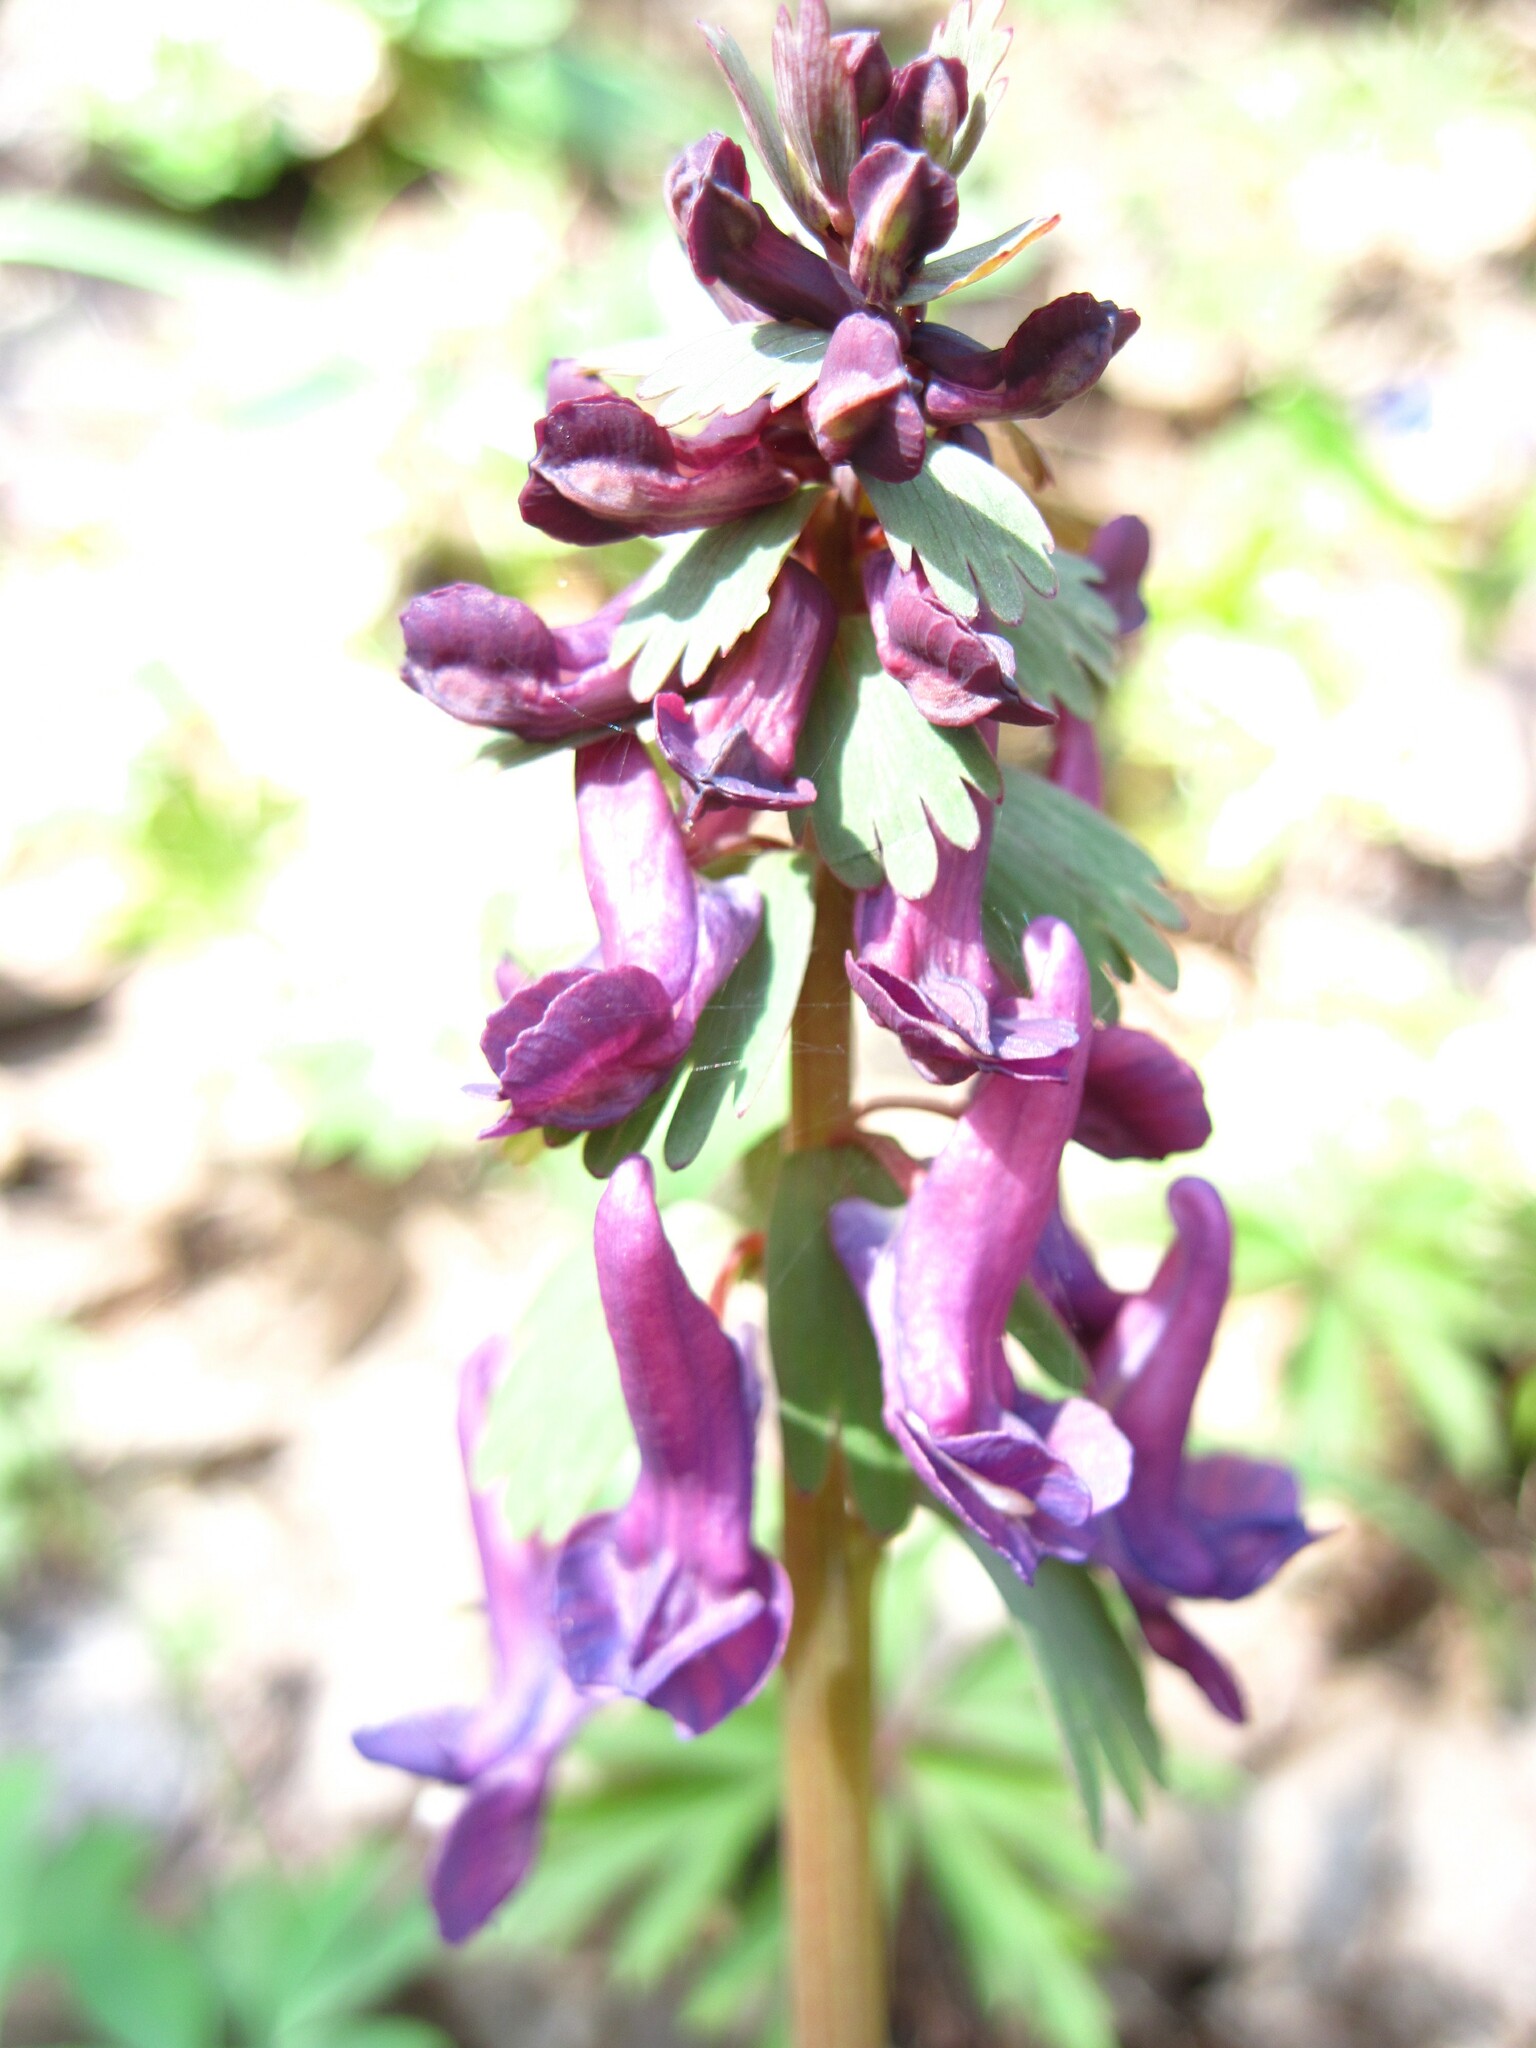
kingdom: Plantae
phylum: Tracheophyta
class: Magnoliopsida
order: Ranunculales
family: Papaveraceae
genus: Corydalis
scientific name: Corydalis solida
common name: Bird-in-a-bush
